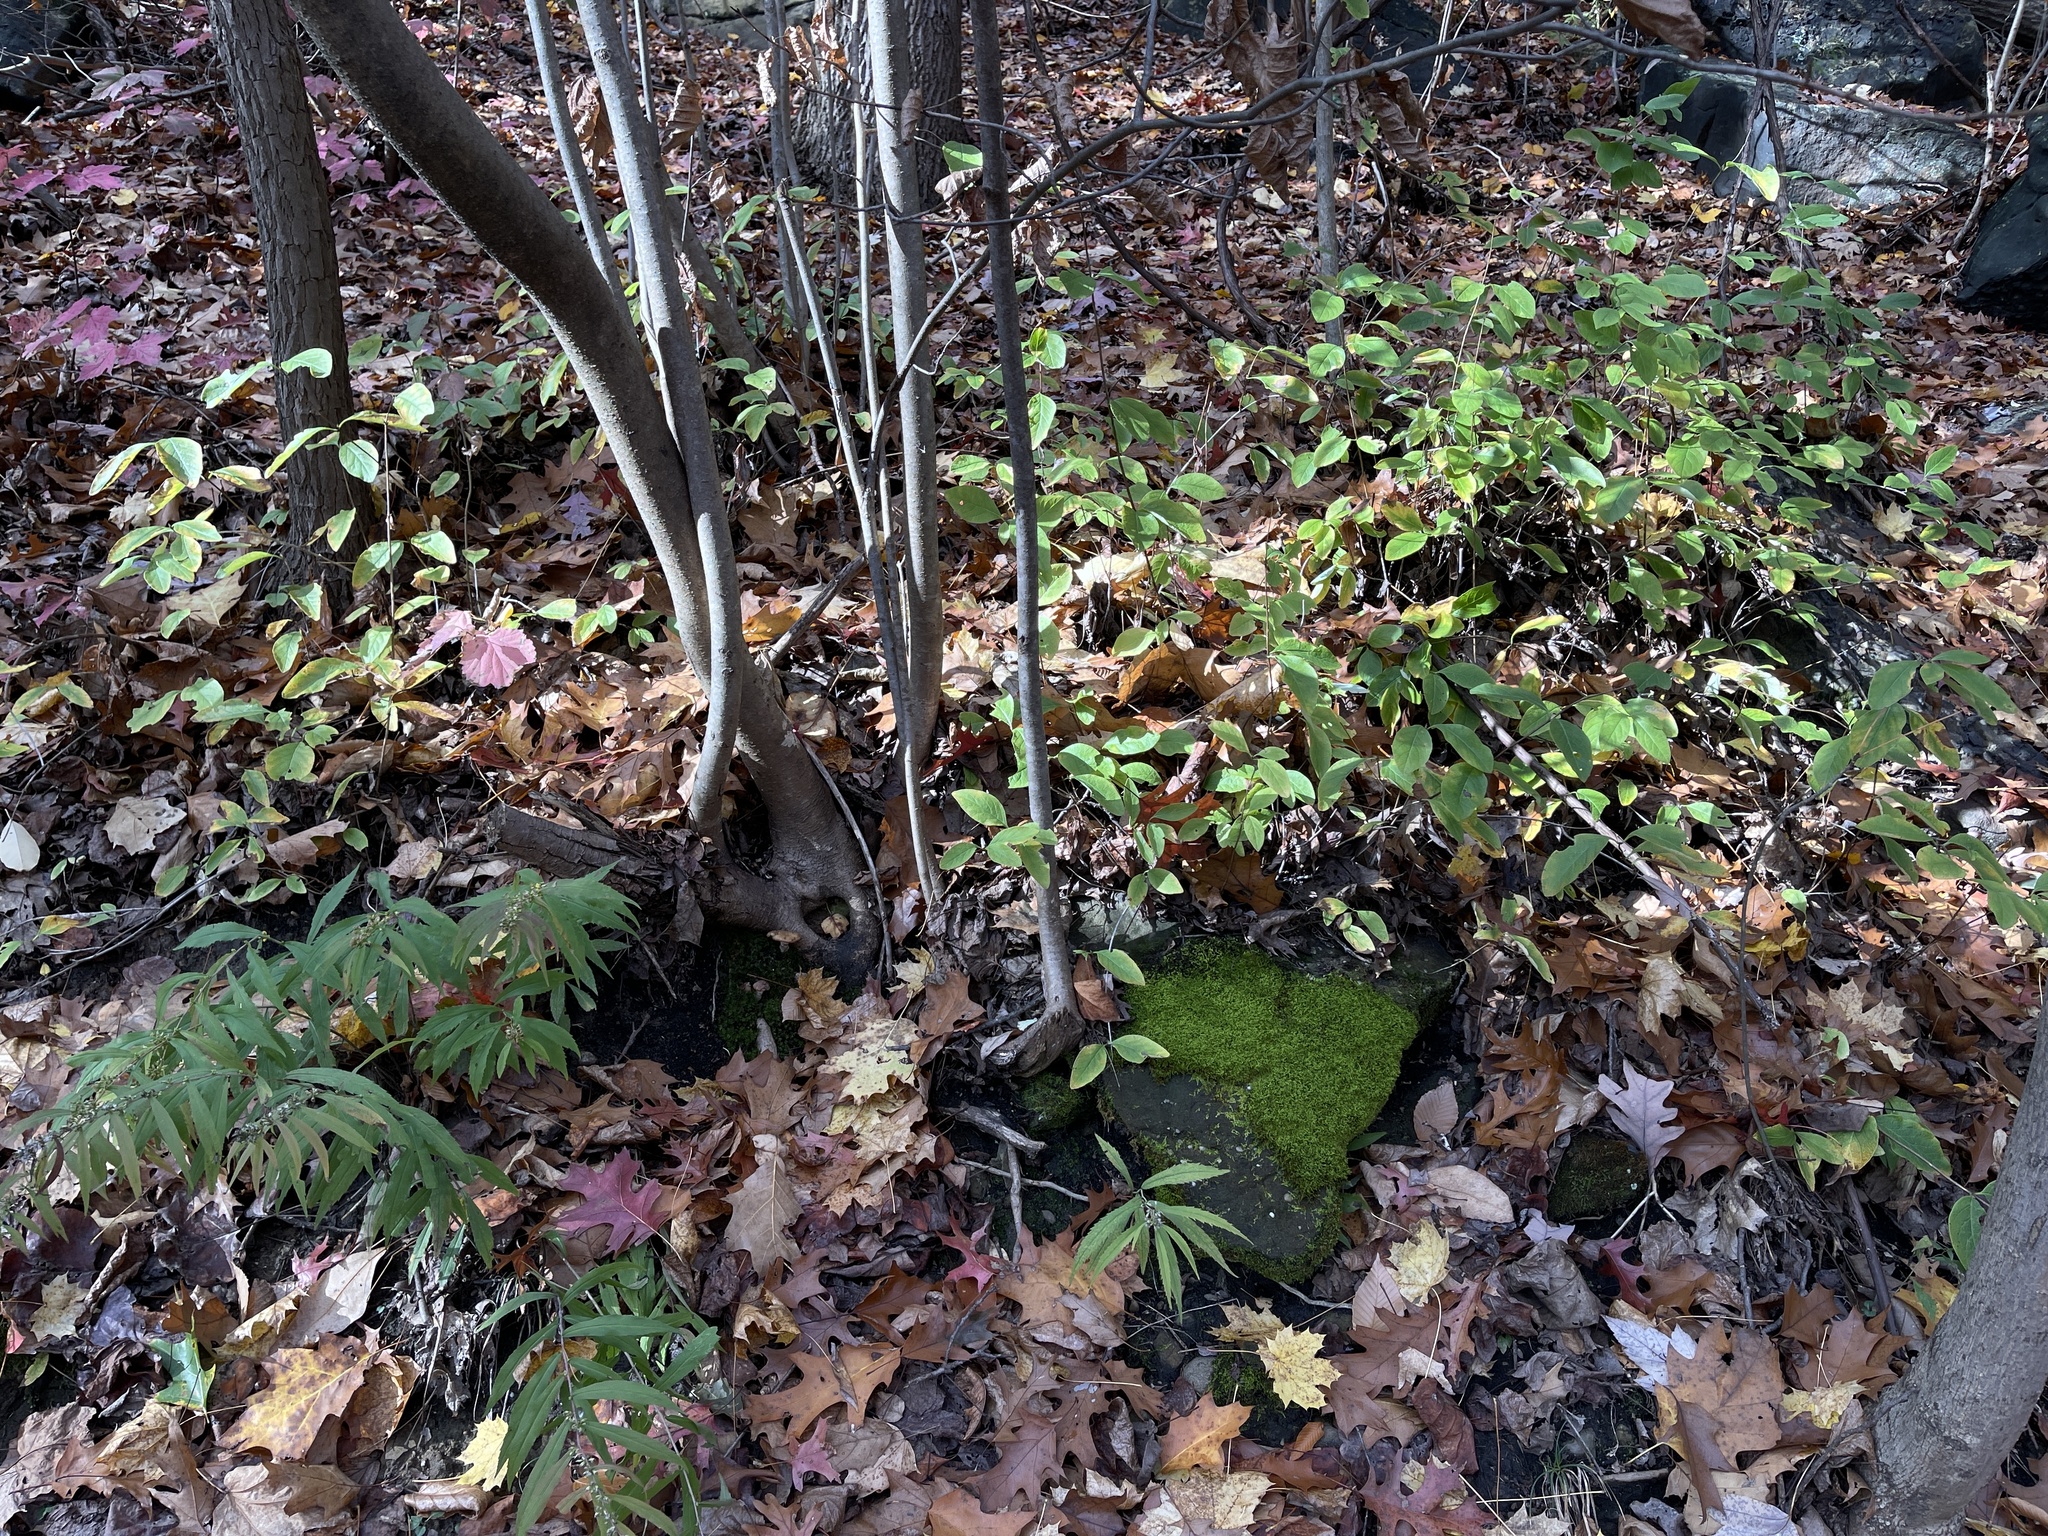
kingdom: Plantae
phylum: Tracheophyta
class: Magnoliopsida
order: Dipsacales
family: Caprifoliaceae
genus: Lonicera
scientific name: Lonicera dioica
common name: Limber honeysuckle
